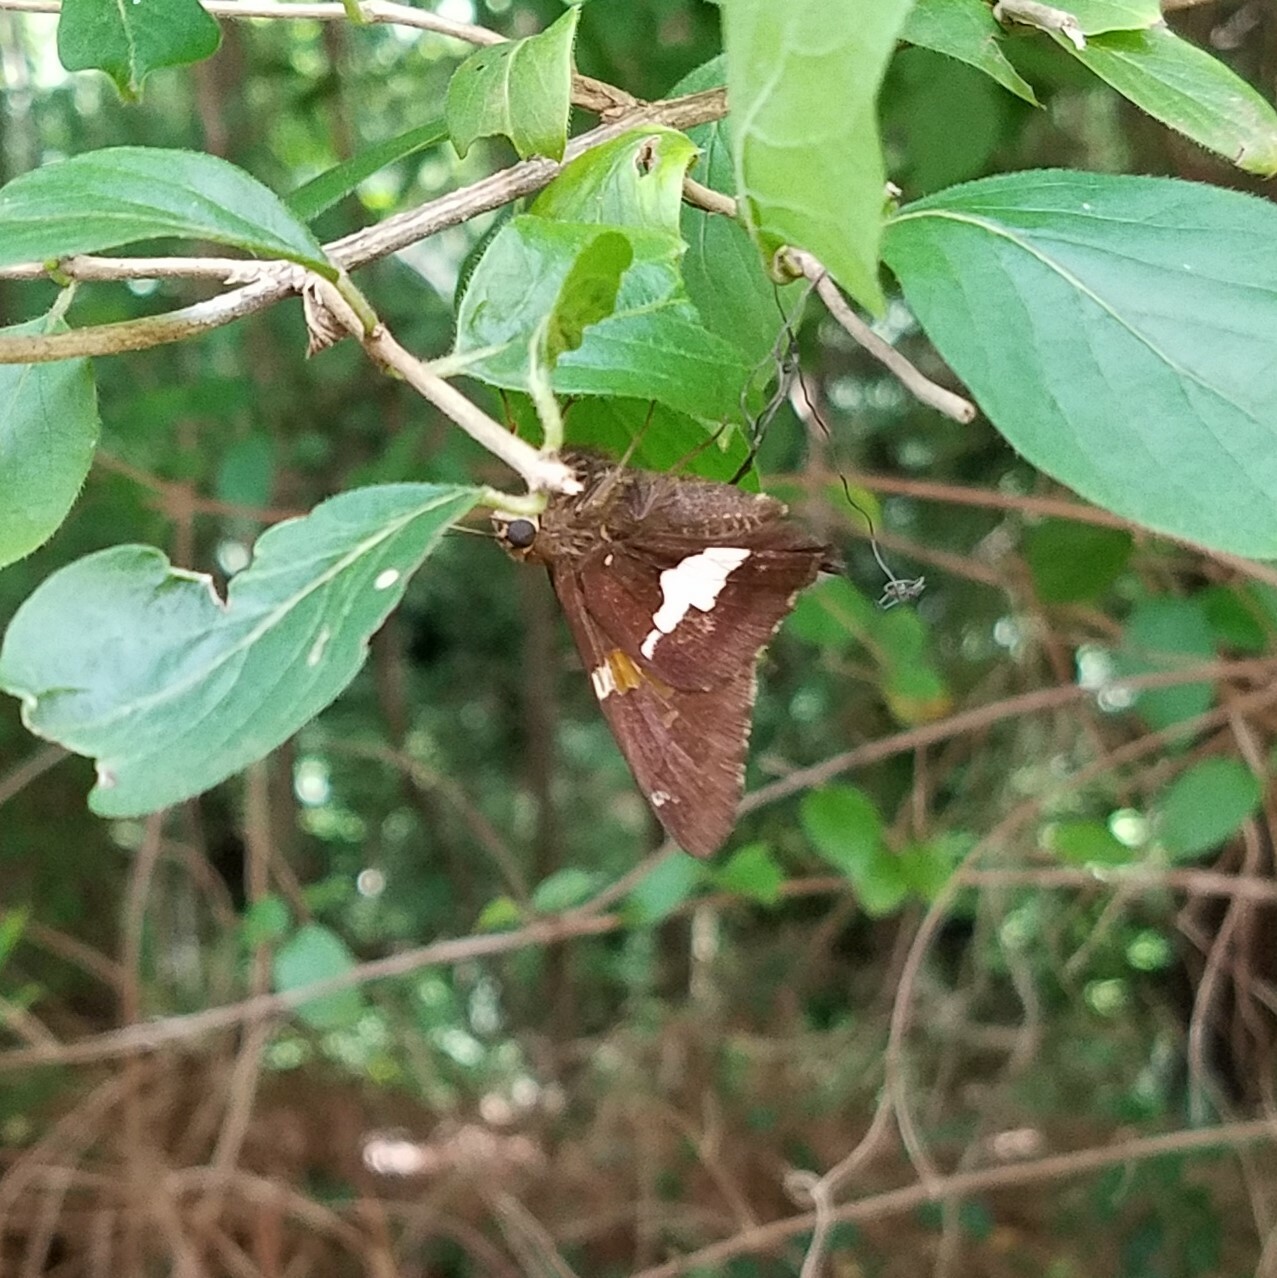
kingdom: Animalia
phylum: Arthropoda
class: Insecta
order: Lepidoptera
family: Hesperiidae
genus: Epargyreus
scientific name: Epargyreus clarus
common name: Silver-spotted skipper
